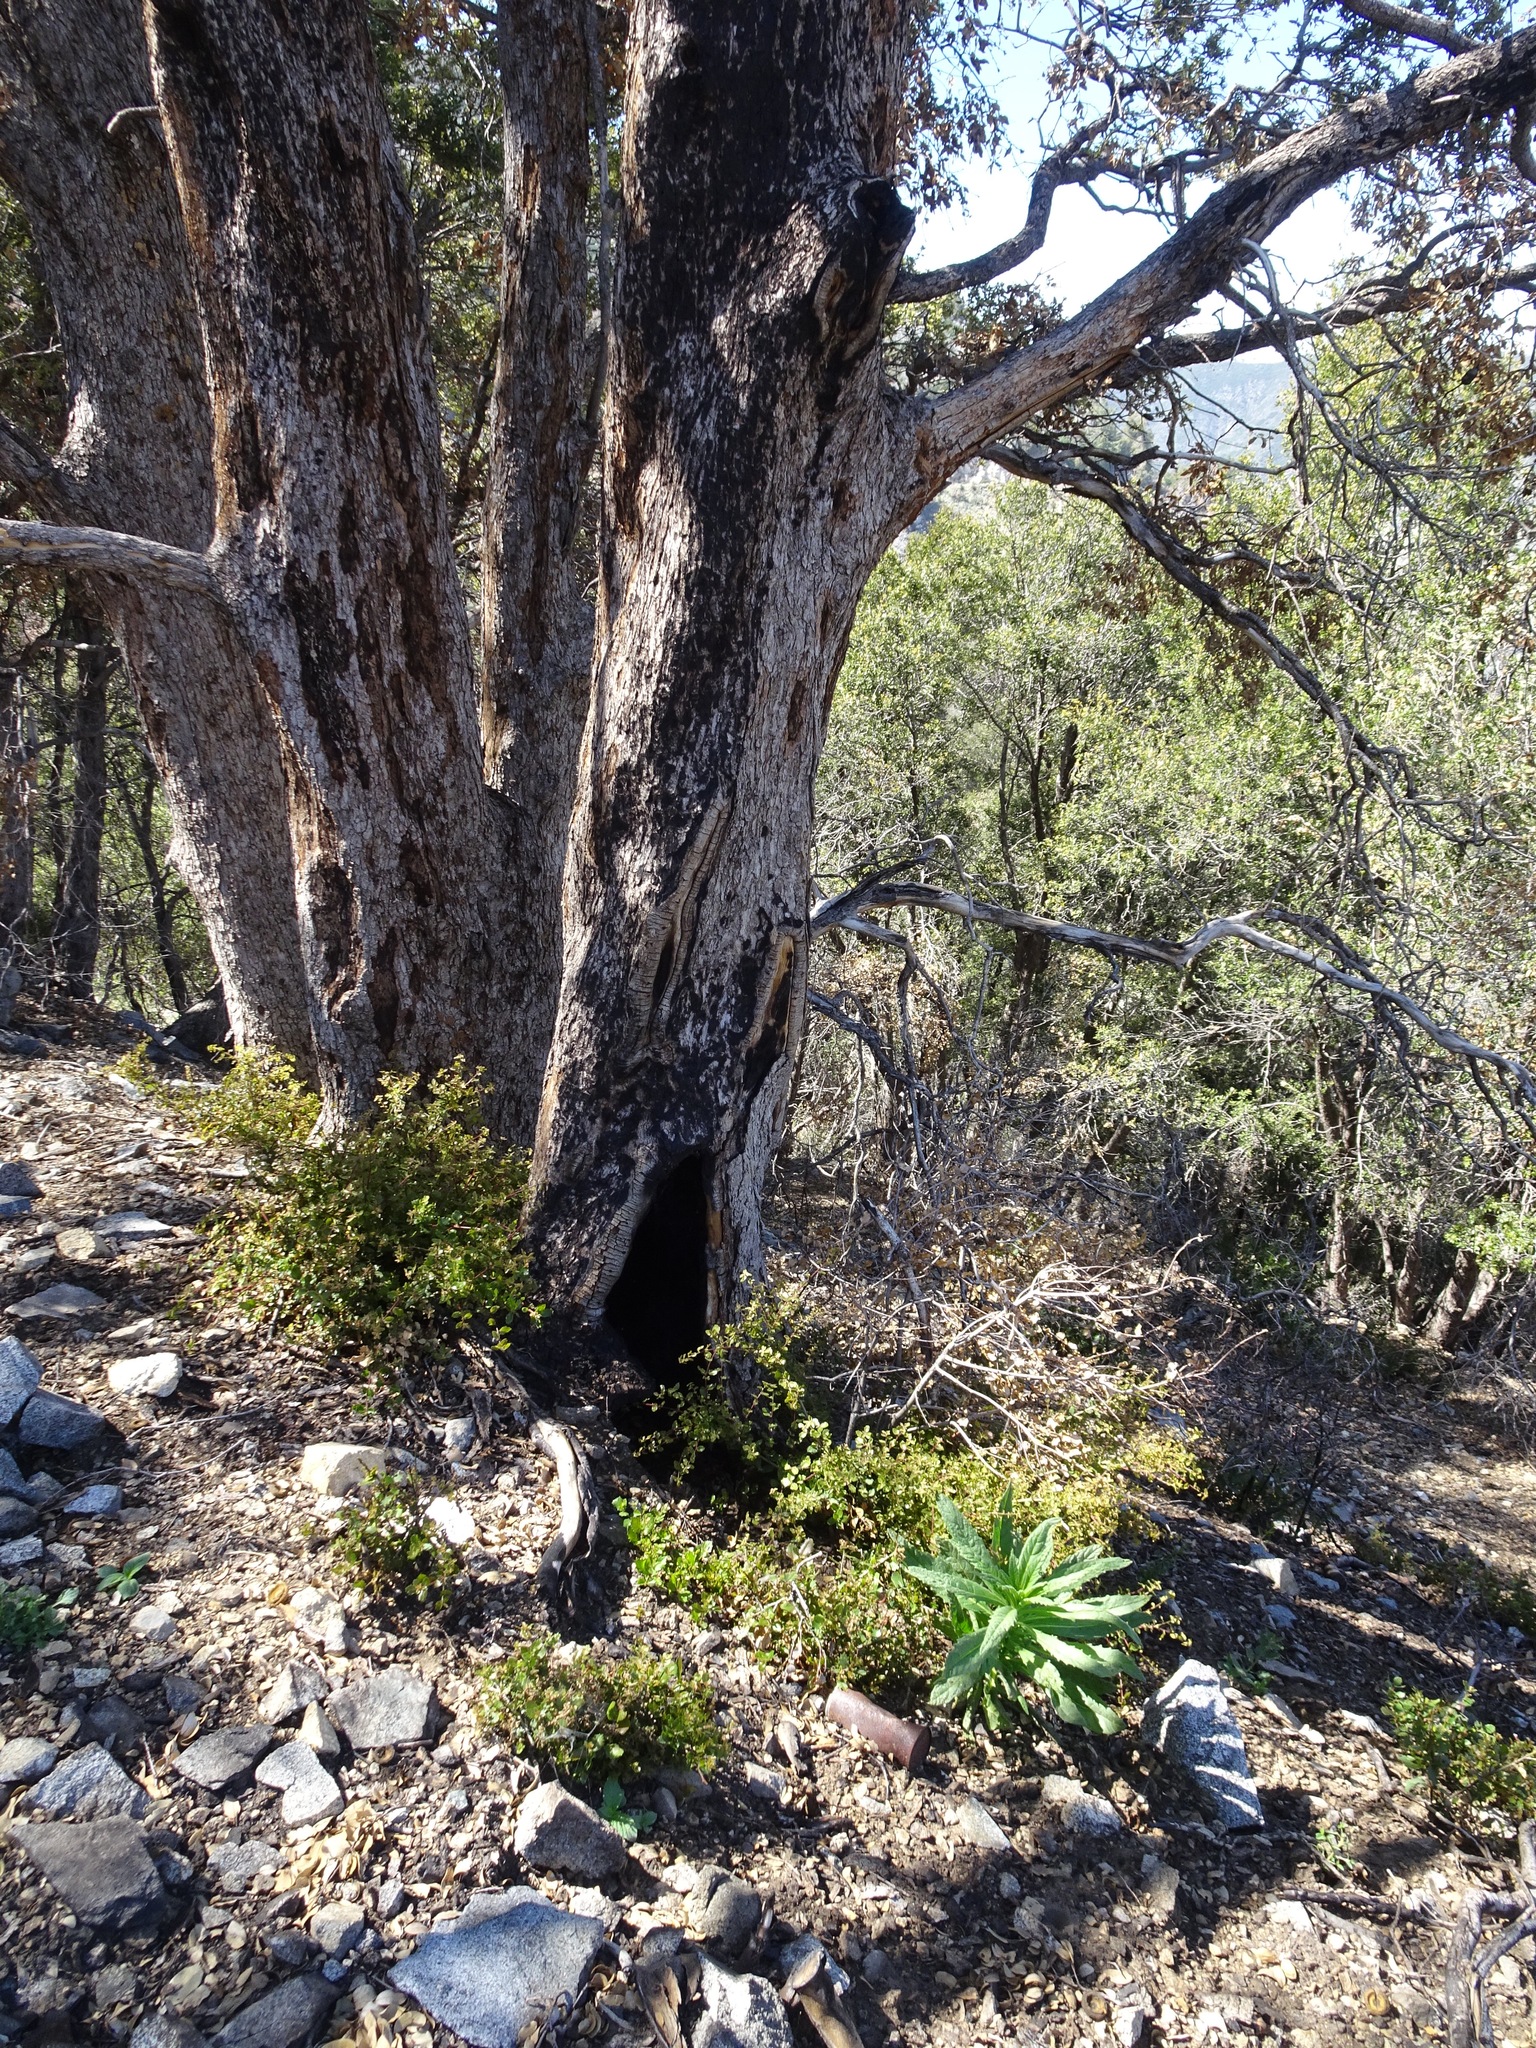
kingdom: Plantae
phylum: Tracheophyta
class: Magnoliopsida
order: Boraginales
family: Namaceae
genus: Turricula
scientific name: Turricula parryi
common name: Poodle-dog-bush
